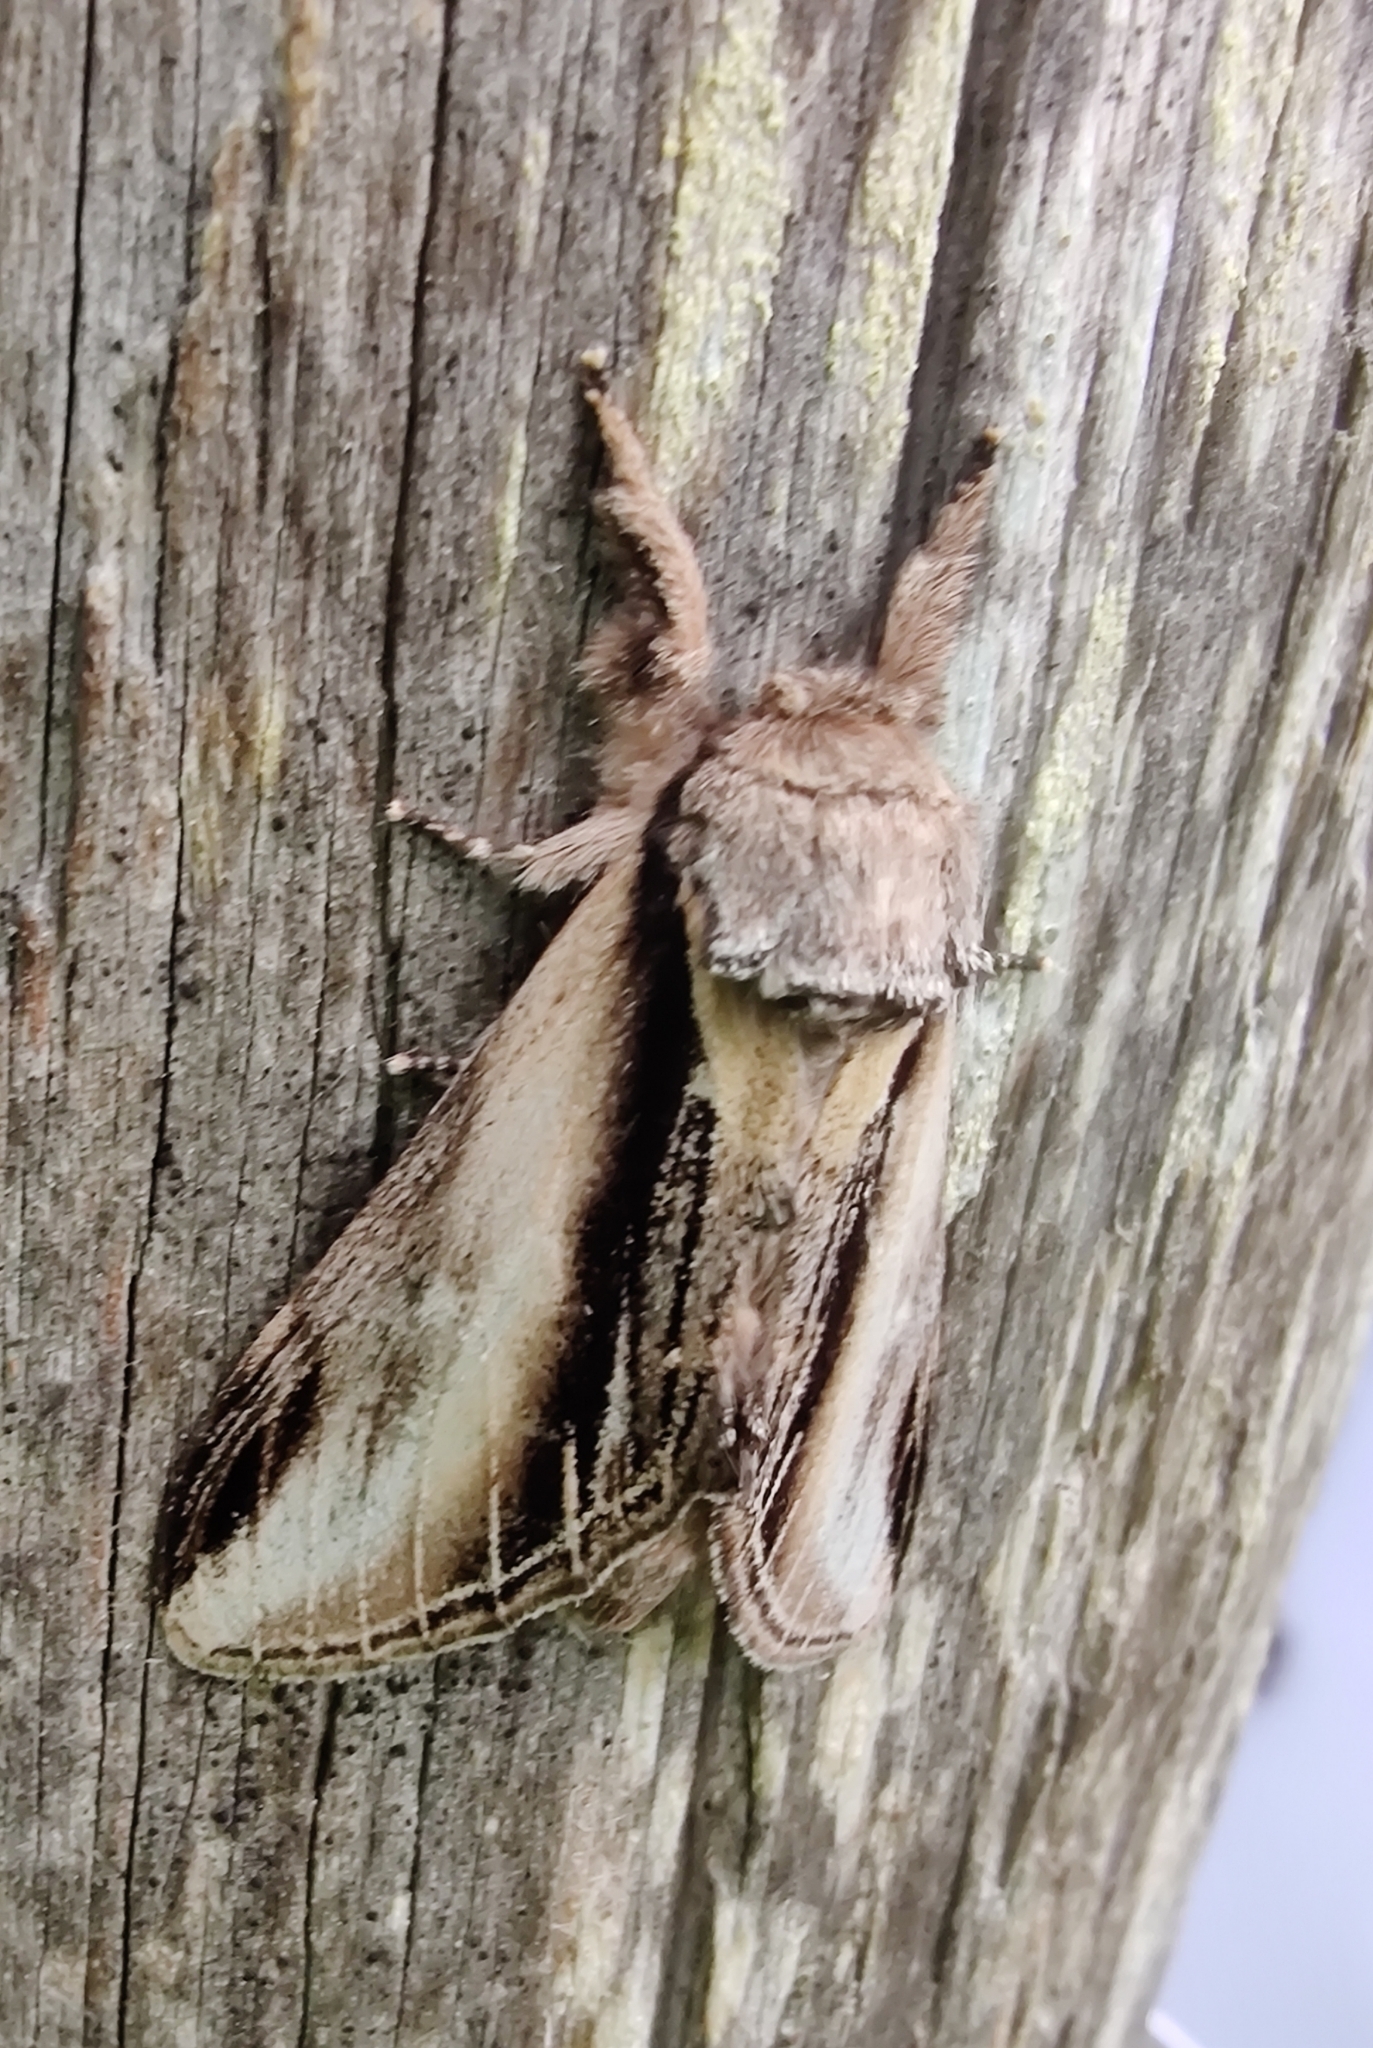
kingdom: Animalia
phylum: Arthropoda
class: Insecta
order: Lepidoptera
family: Notodontidae
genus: Pheosia
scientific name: Pheosia tremula
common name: Swallow prominent
